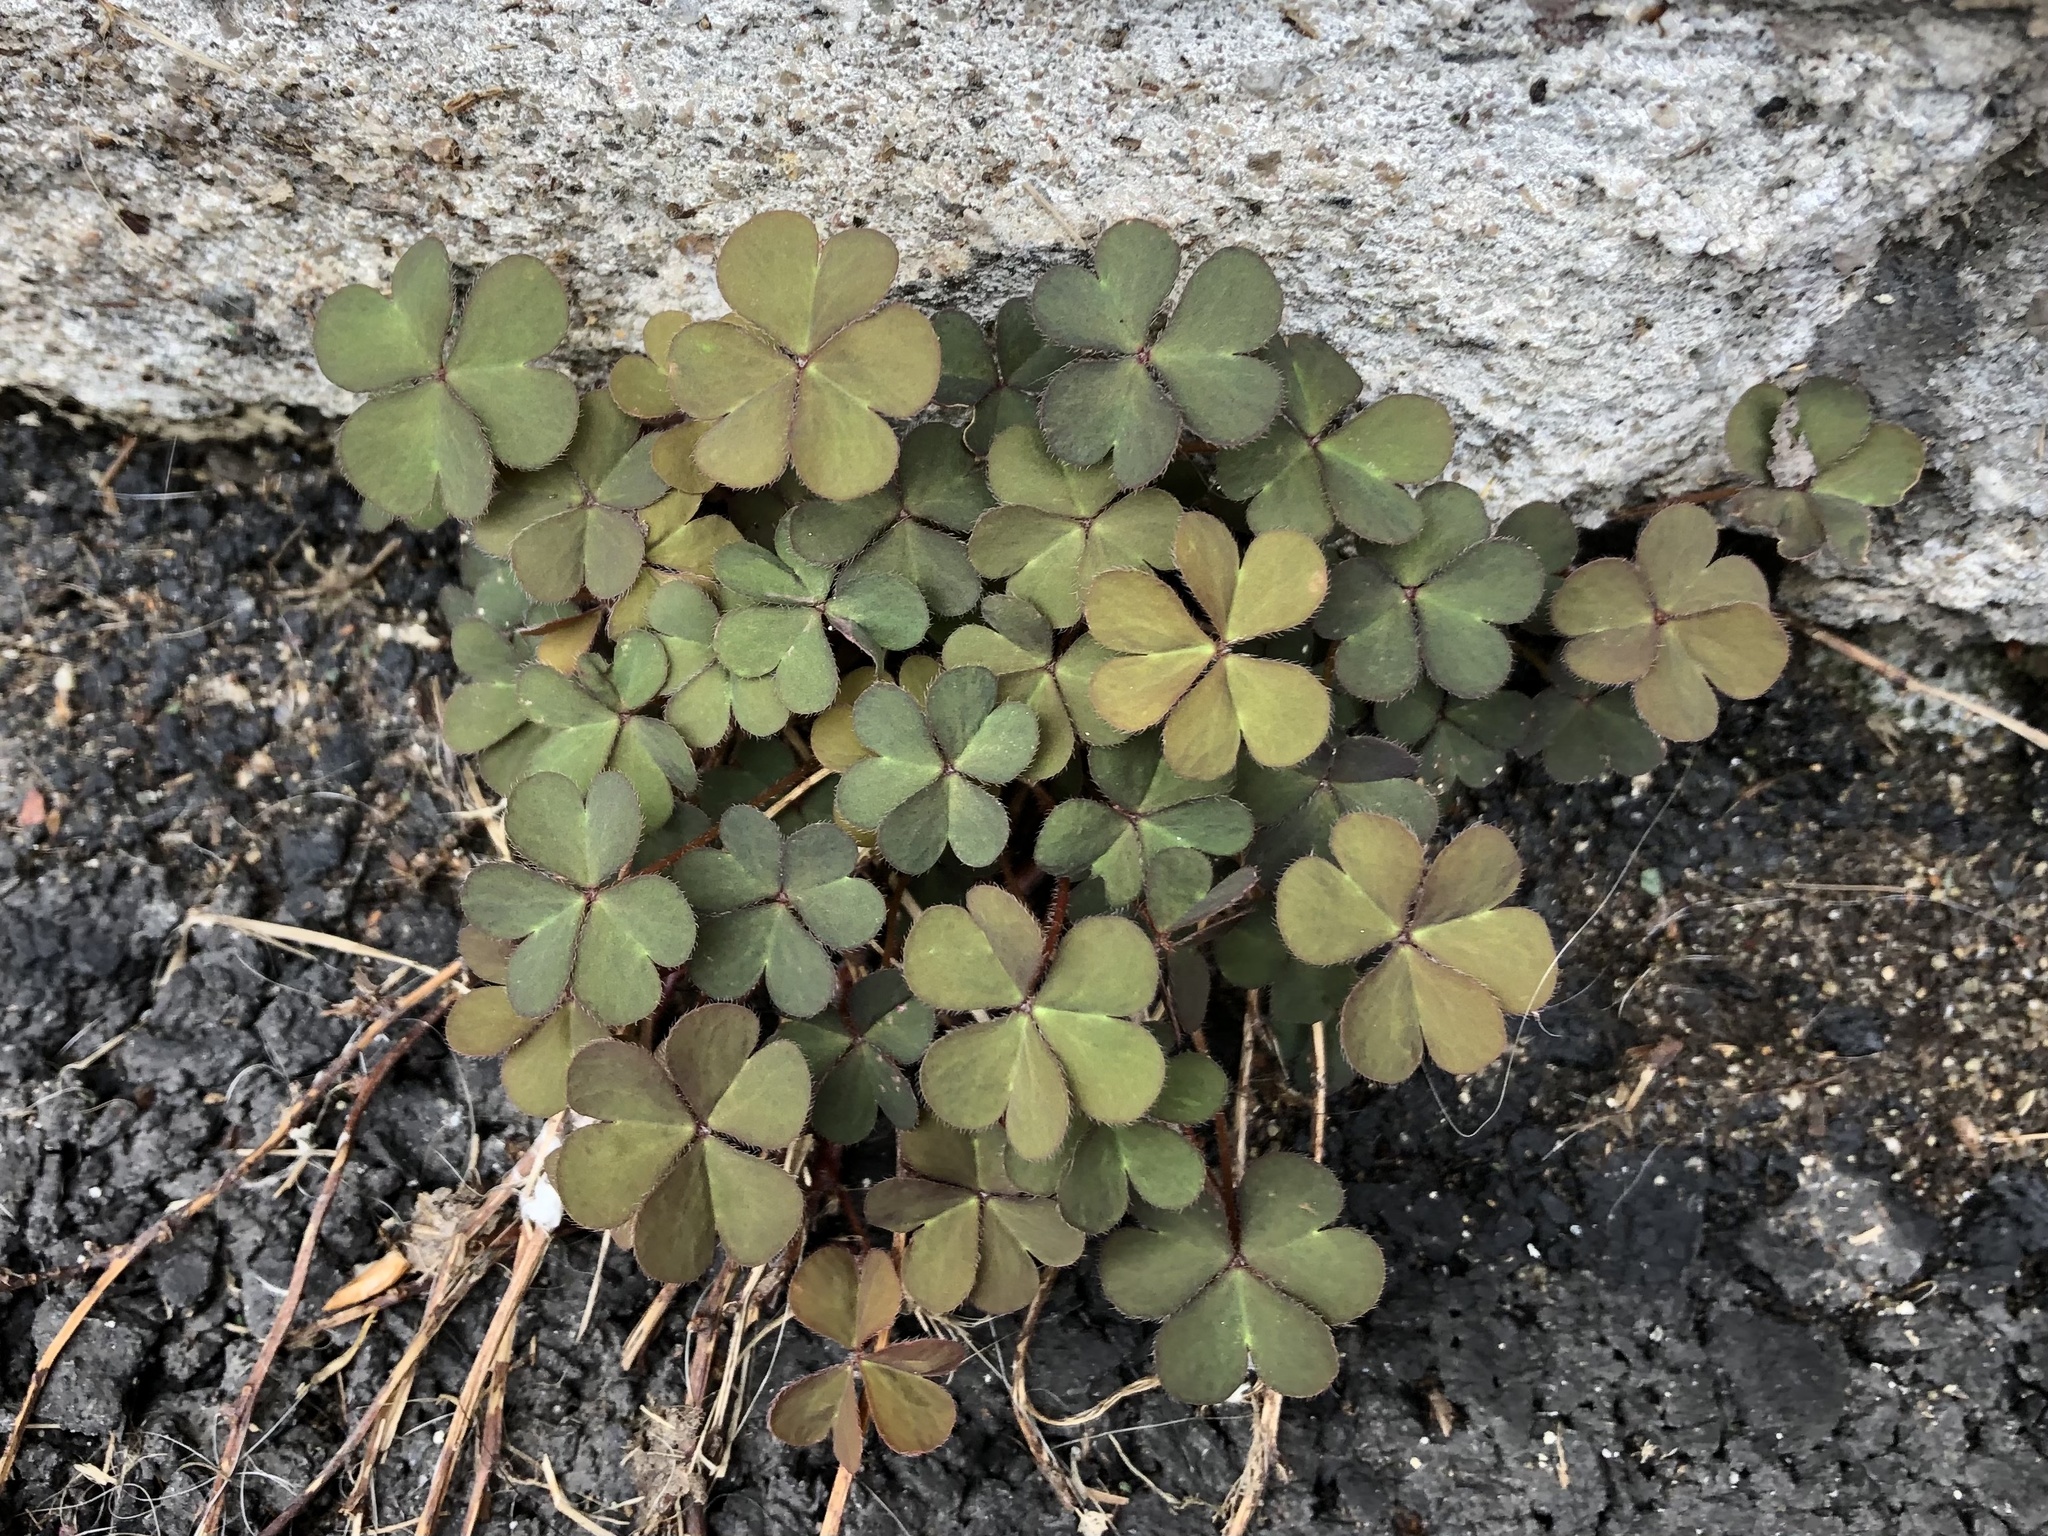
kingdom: Plantae
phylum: Tracheophyta
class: Magnoliopsida
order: Oxalidales
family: Oxalidaceae
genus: Oxalis
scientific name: Oxalis corniculata
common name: Procumbent yellow-sorrel
